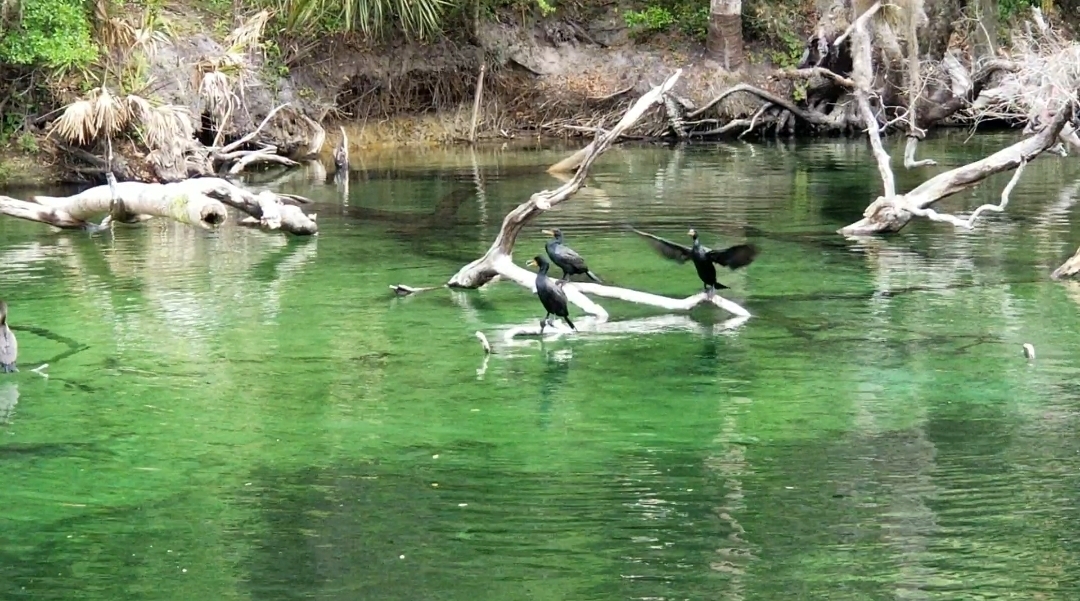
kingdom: Animalia
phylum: Chordata
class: Aves
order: Suliformes
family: Phalacrocoracidae
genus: Phalacrocorax
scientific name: Phalacrocorax auritus
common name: Double-crested cormorant
